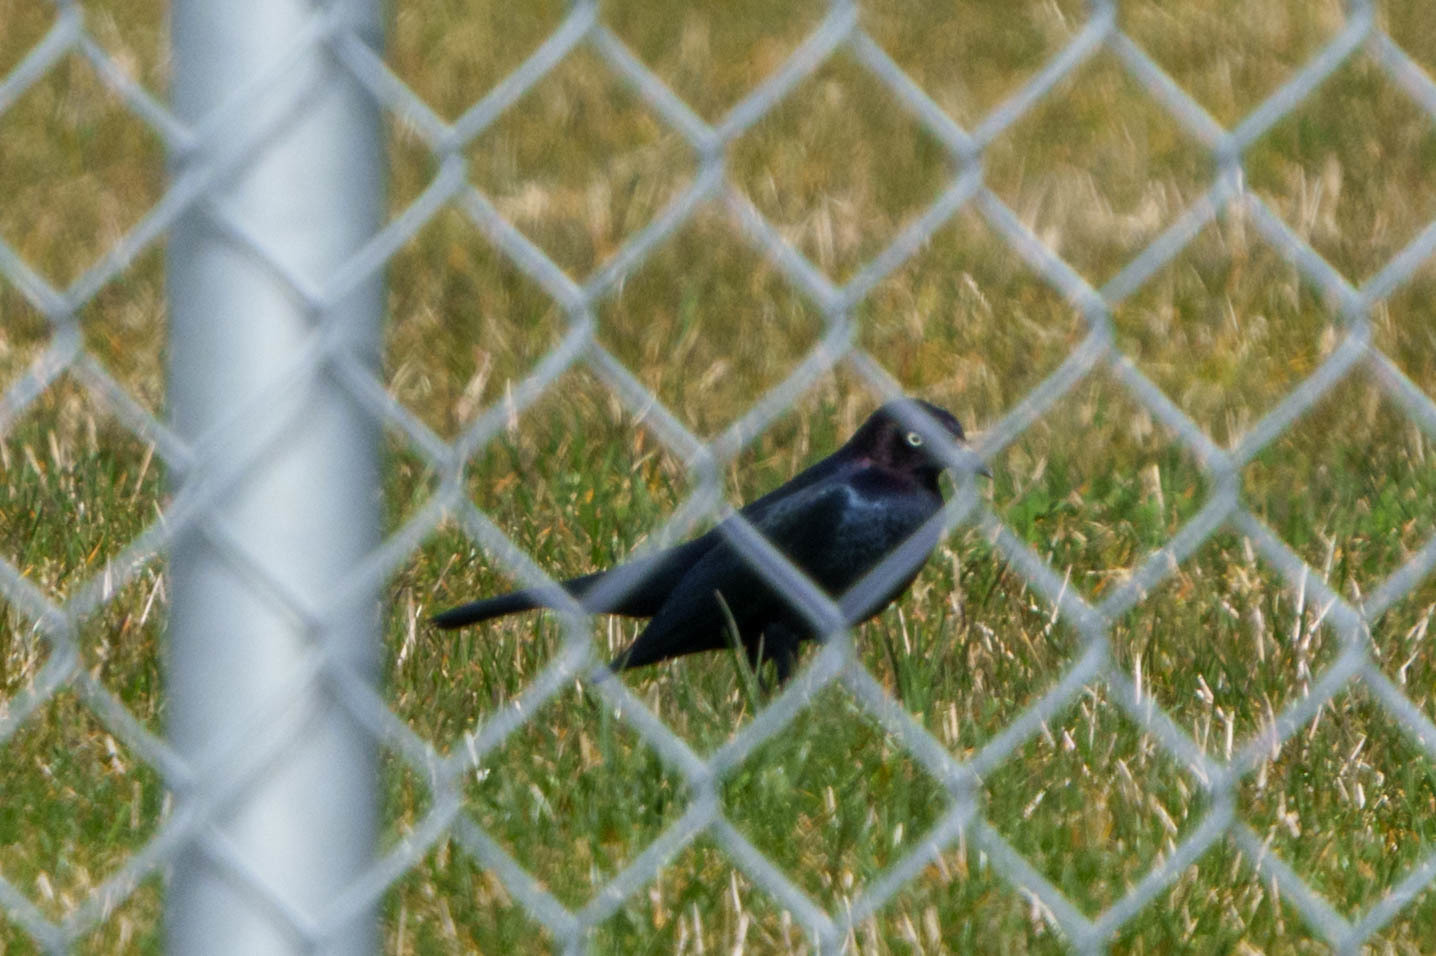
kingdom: Animalia
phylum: Chordata
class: Aves
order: Passeriformes
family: Icteridae
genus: Euphagus
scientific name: Euphagus cyanocephalus
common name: Brewer's blackbird
